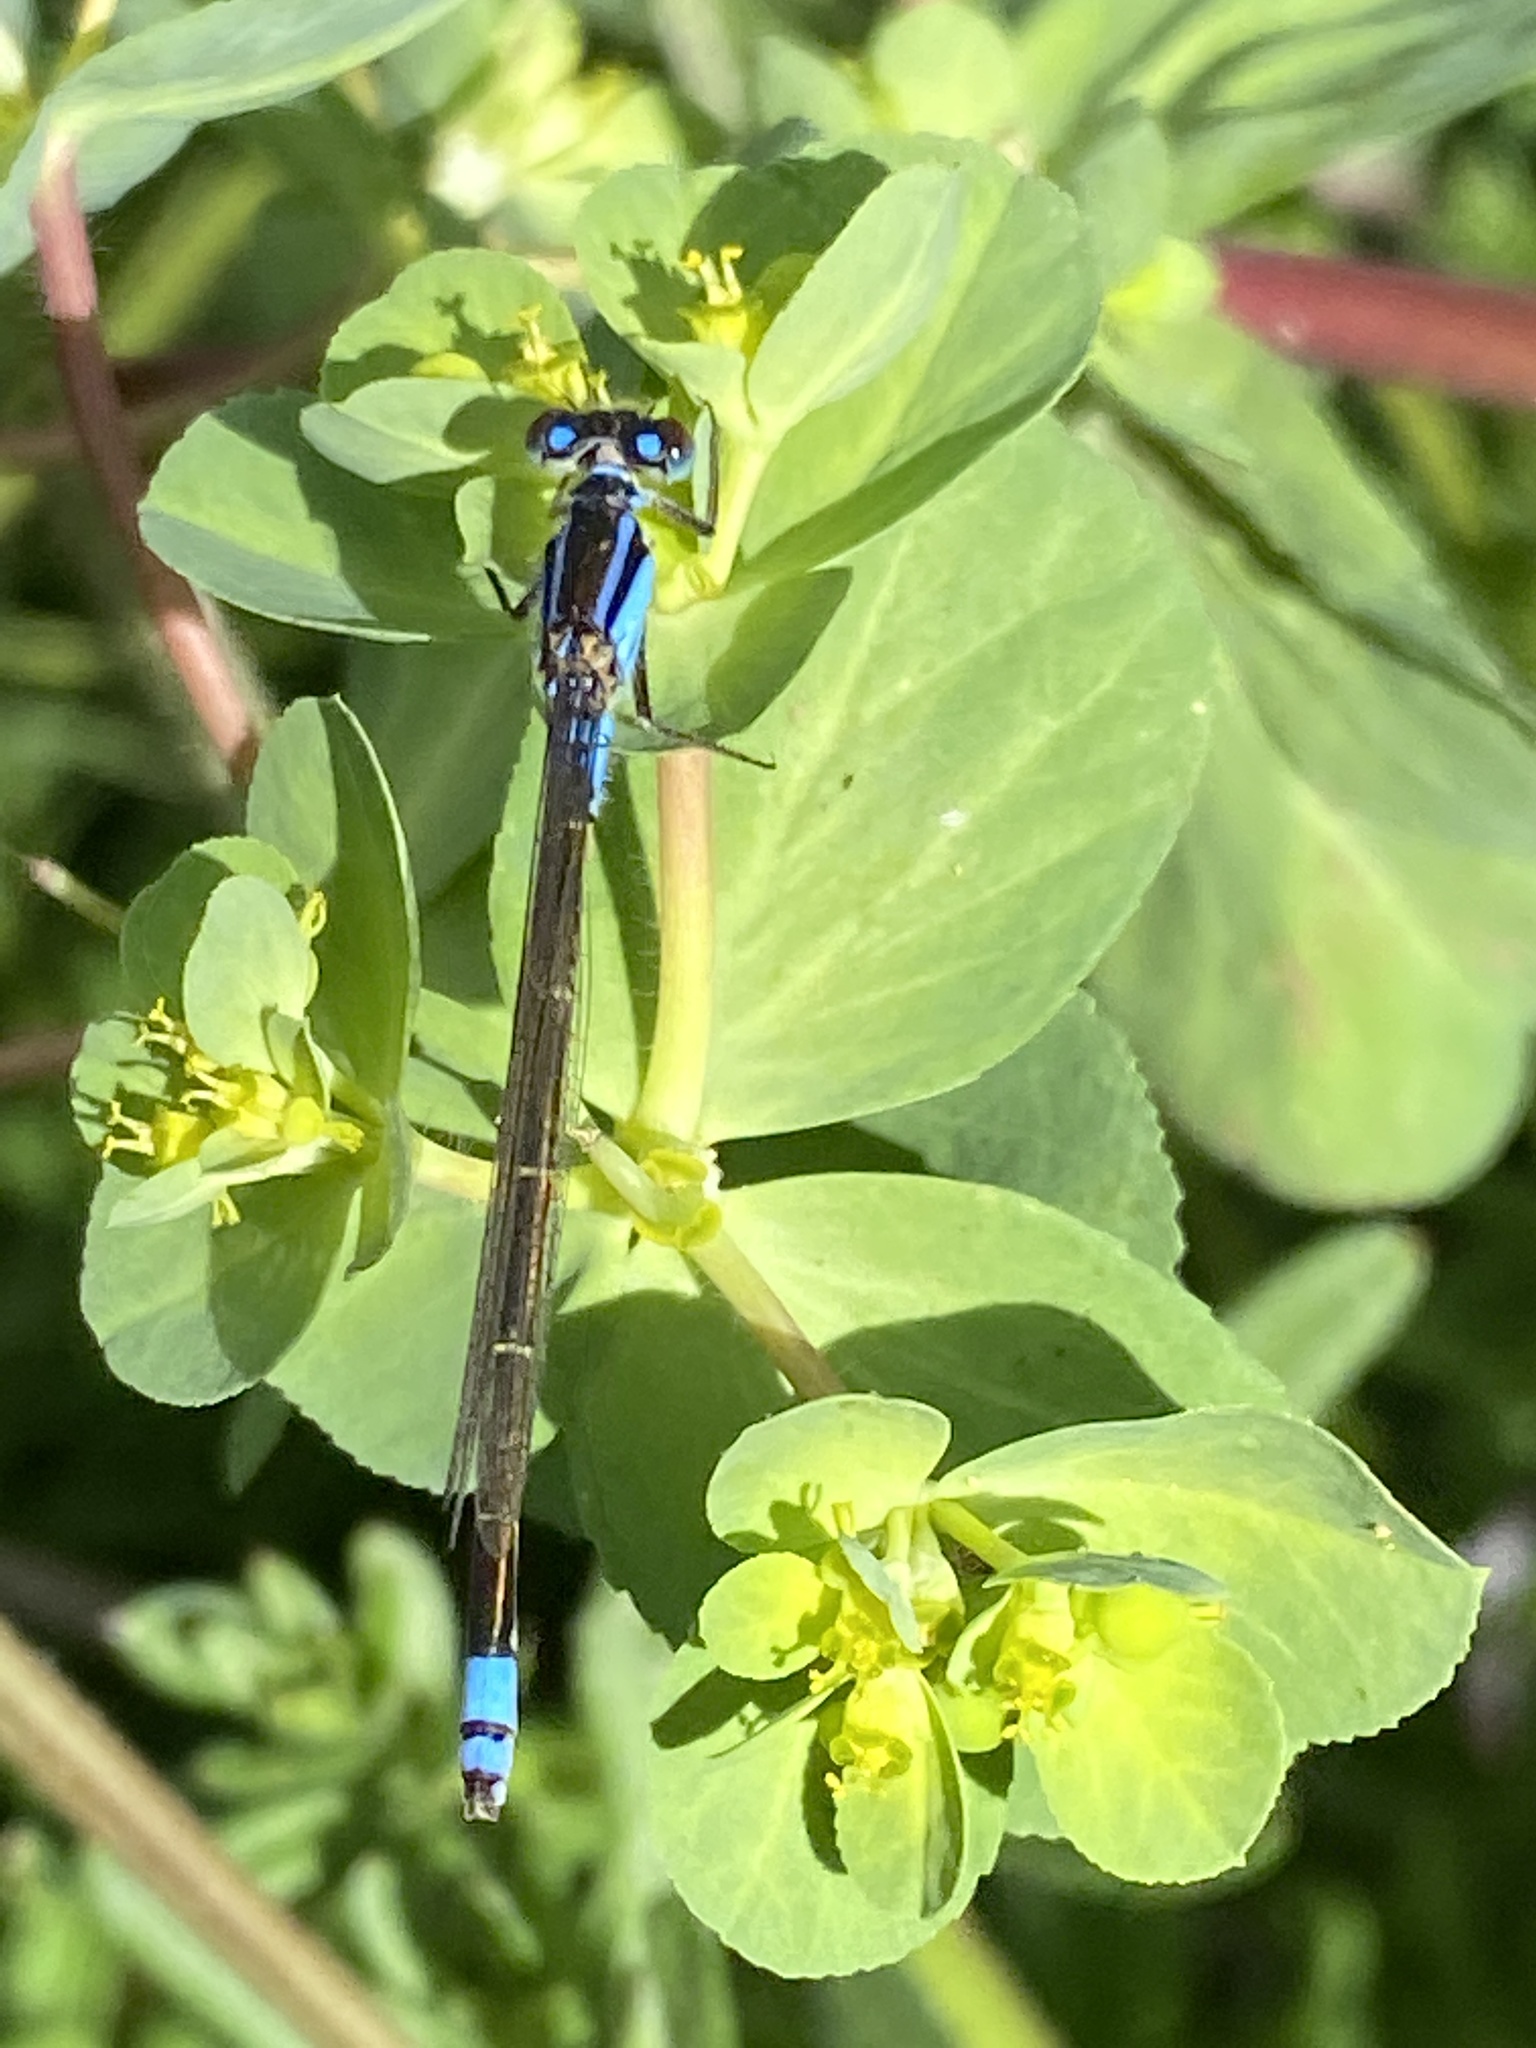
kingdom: Animalia
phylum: Arthropoda
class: Insecta
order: Odonata
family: Coenagrionidae
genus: Ischnura
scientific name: Ischnura heterosticta
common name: Common bluetail
